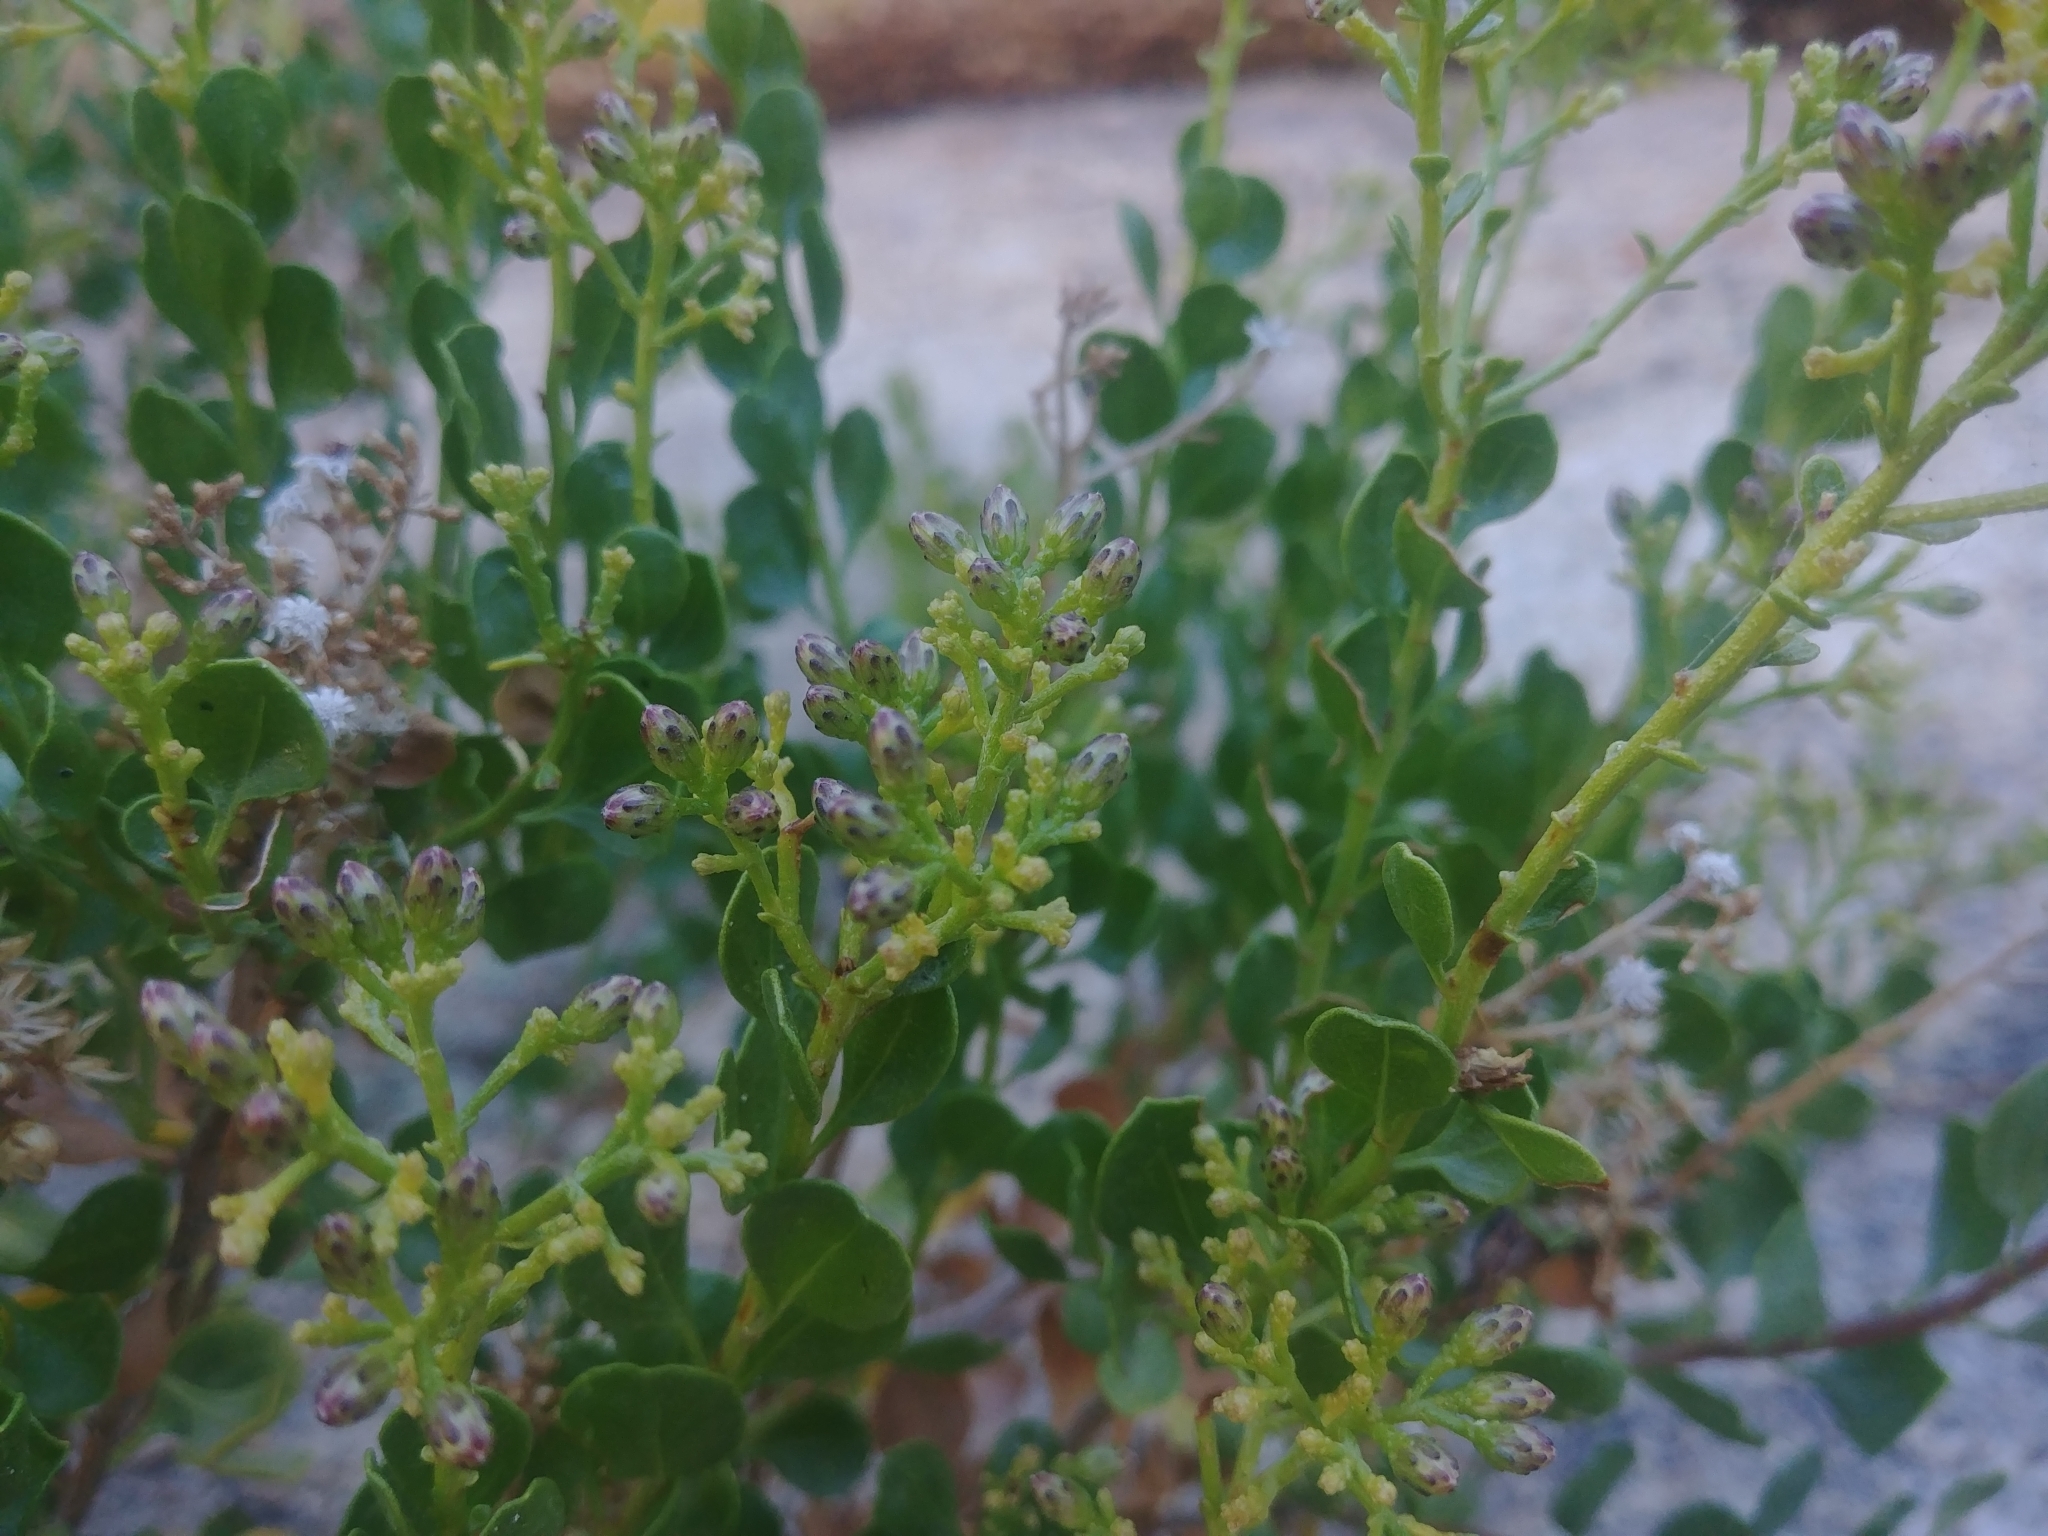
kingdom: Plantae
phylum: Tracheophyta
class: Magnoliopsida
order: Asterales
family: Asteraceae
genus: Ericameria
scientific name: Ericameria cuneata
